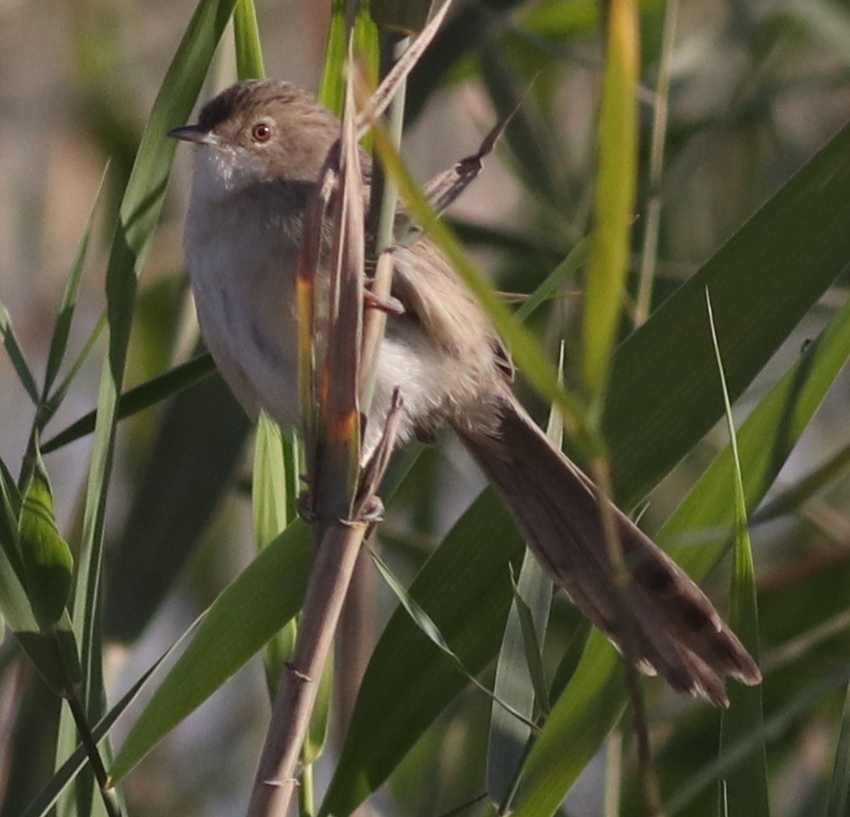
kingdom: Animalia
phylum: Chordata
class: Aves
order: Passeriformes
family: Cisticolidae
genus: Prinia
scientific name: Prinia lepida
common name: Delicate prinia
